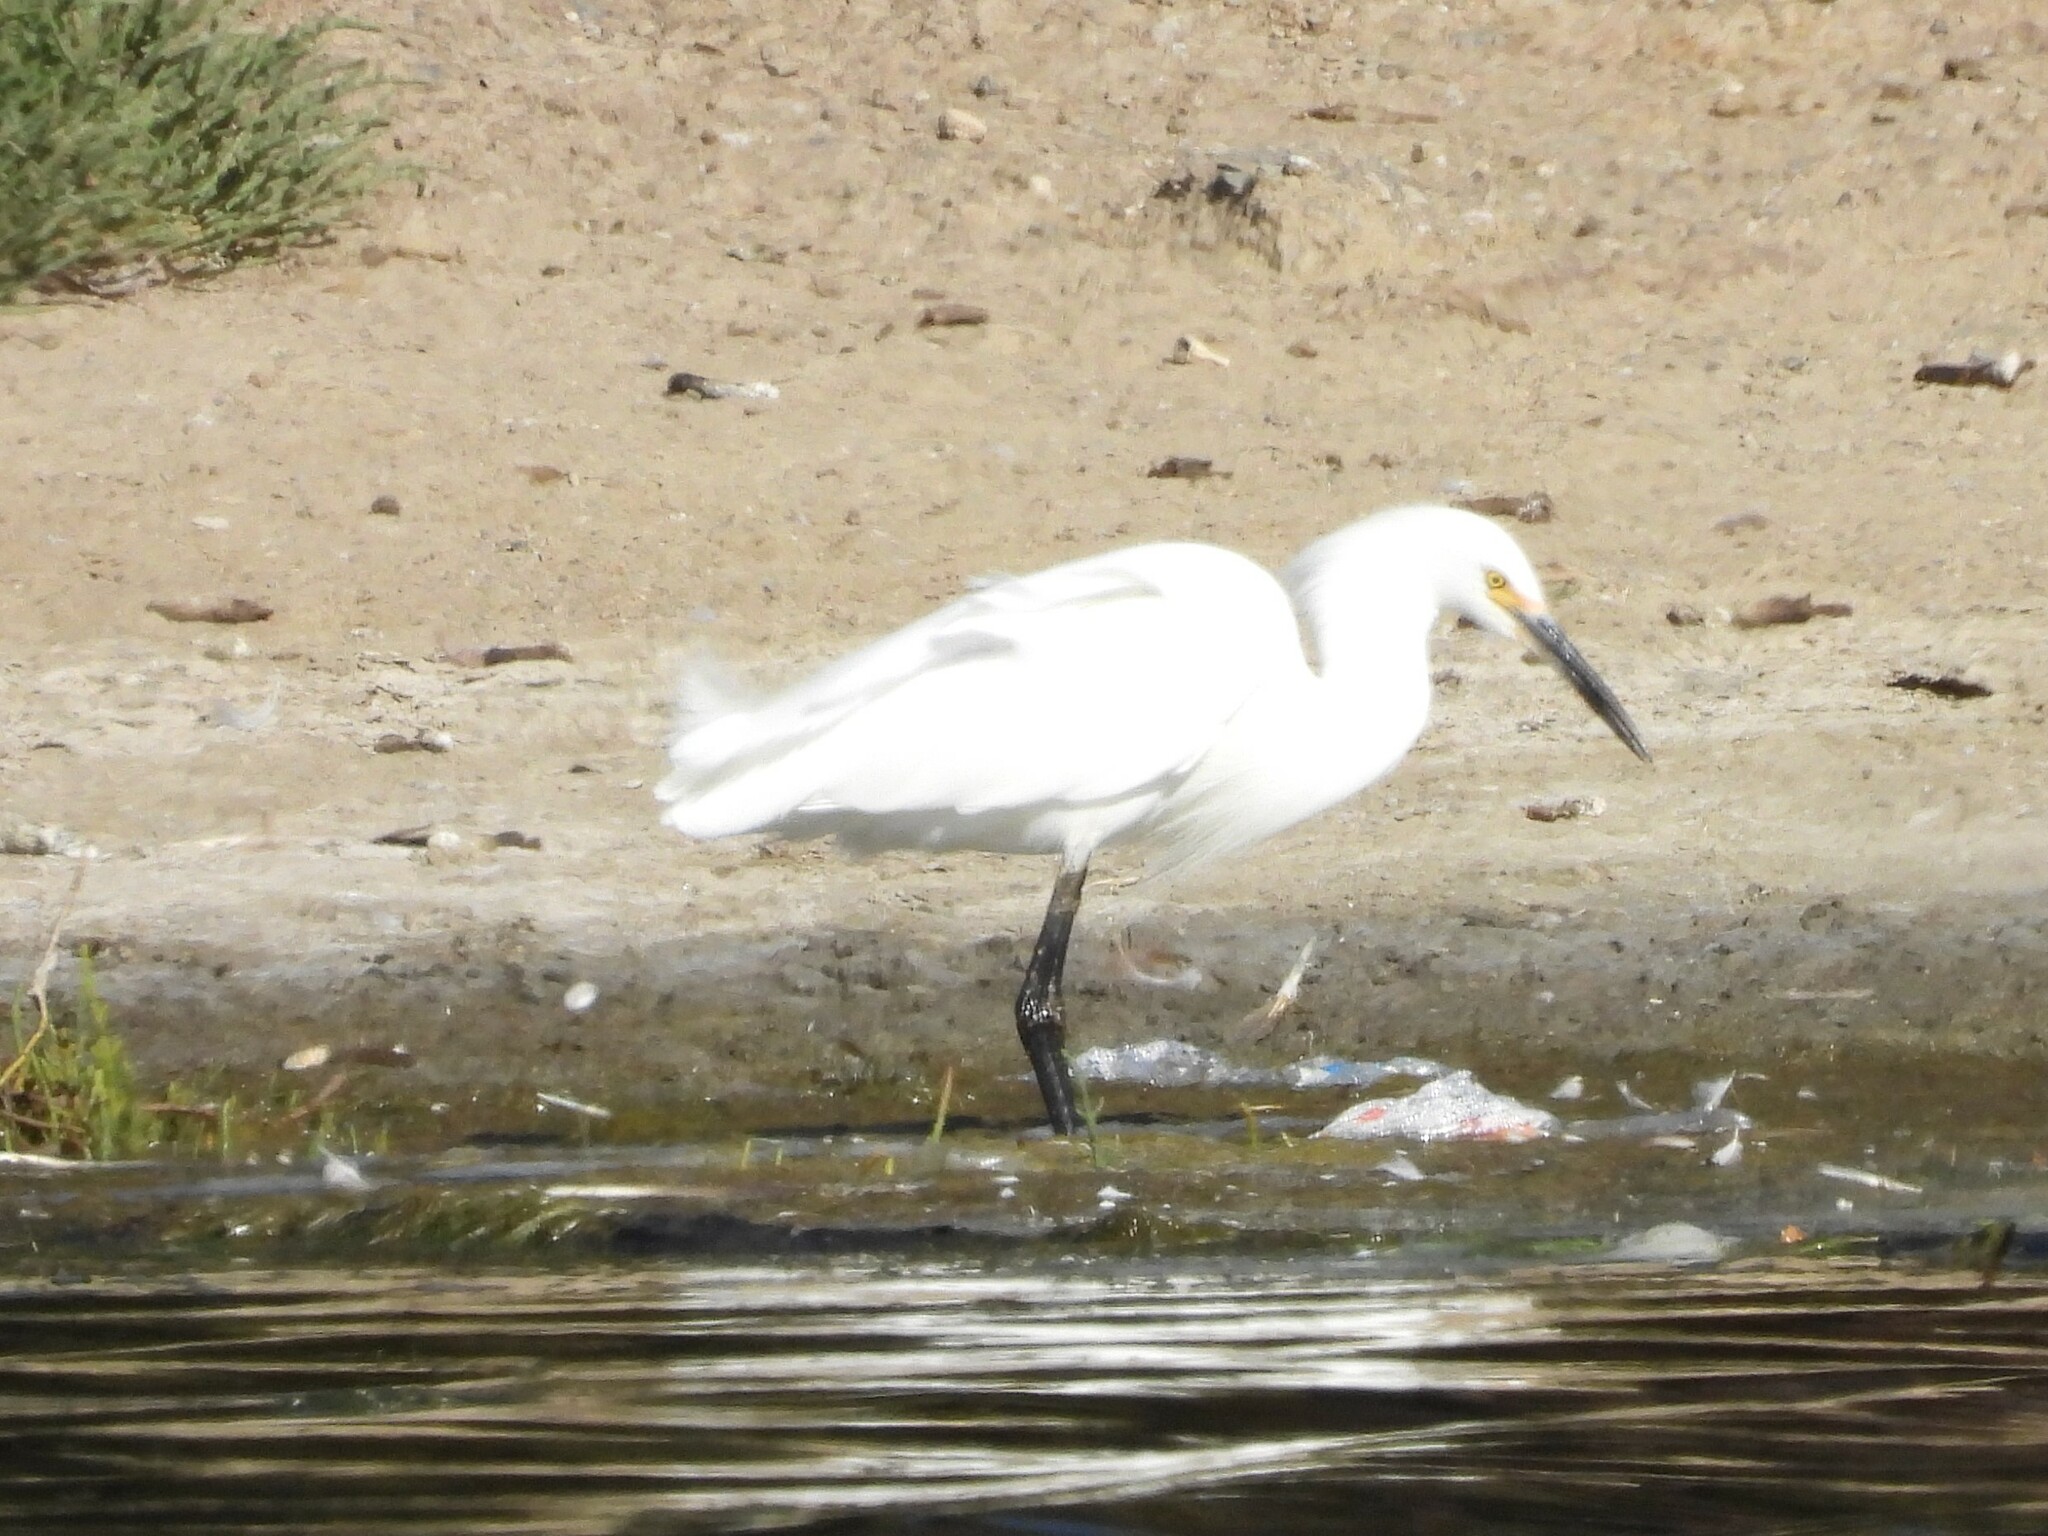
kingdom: Animalia
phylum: Chordata
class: Aves
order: Pelecaniformes
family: Ardeidae
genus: Egretta
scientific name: Egretta thula
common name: Snowy egret
